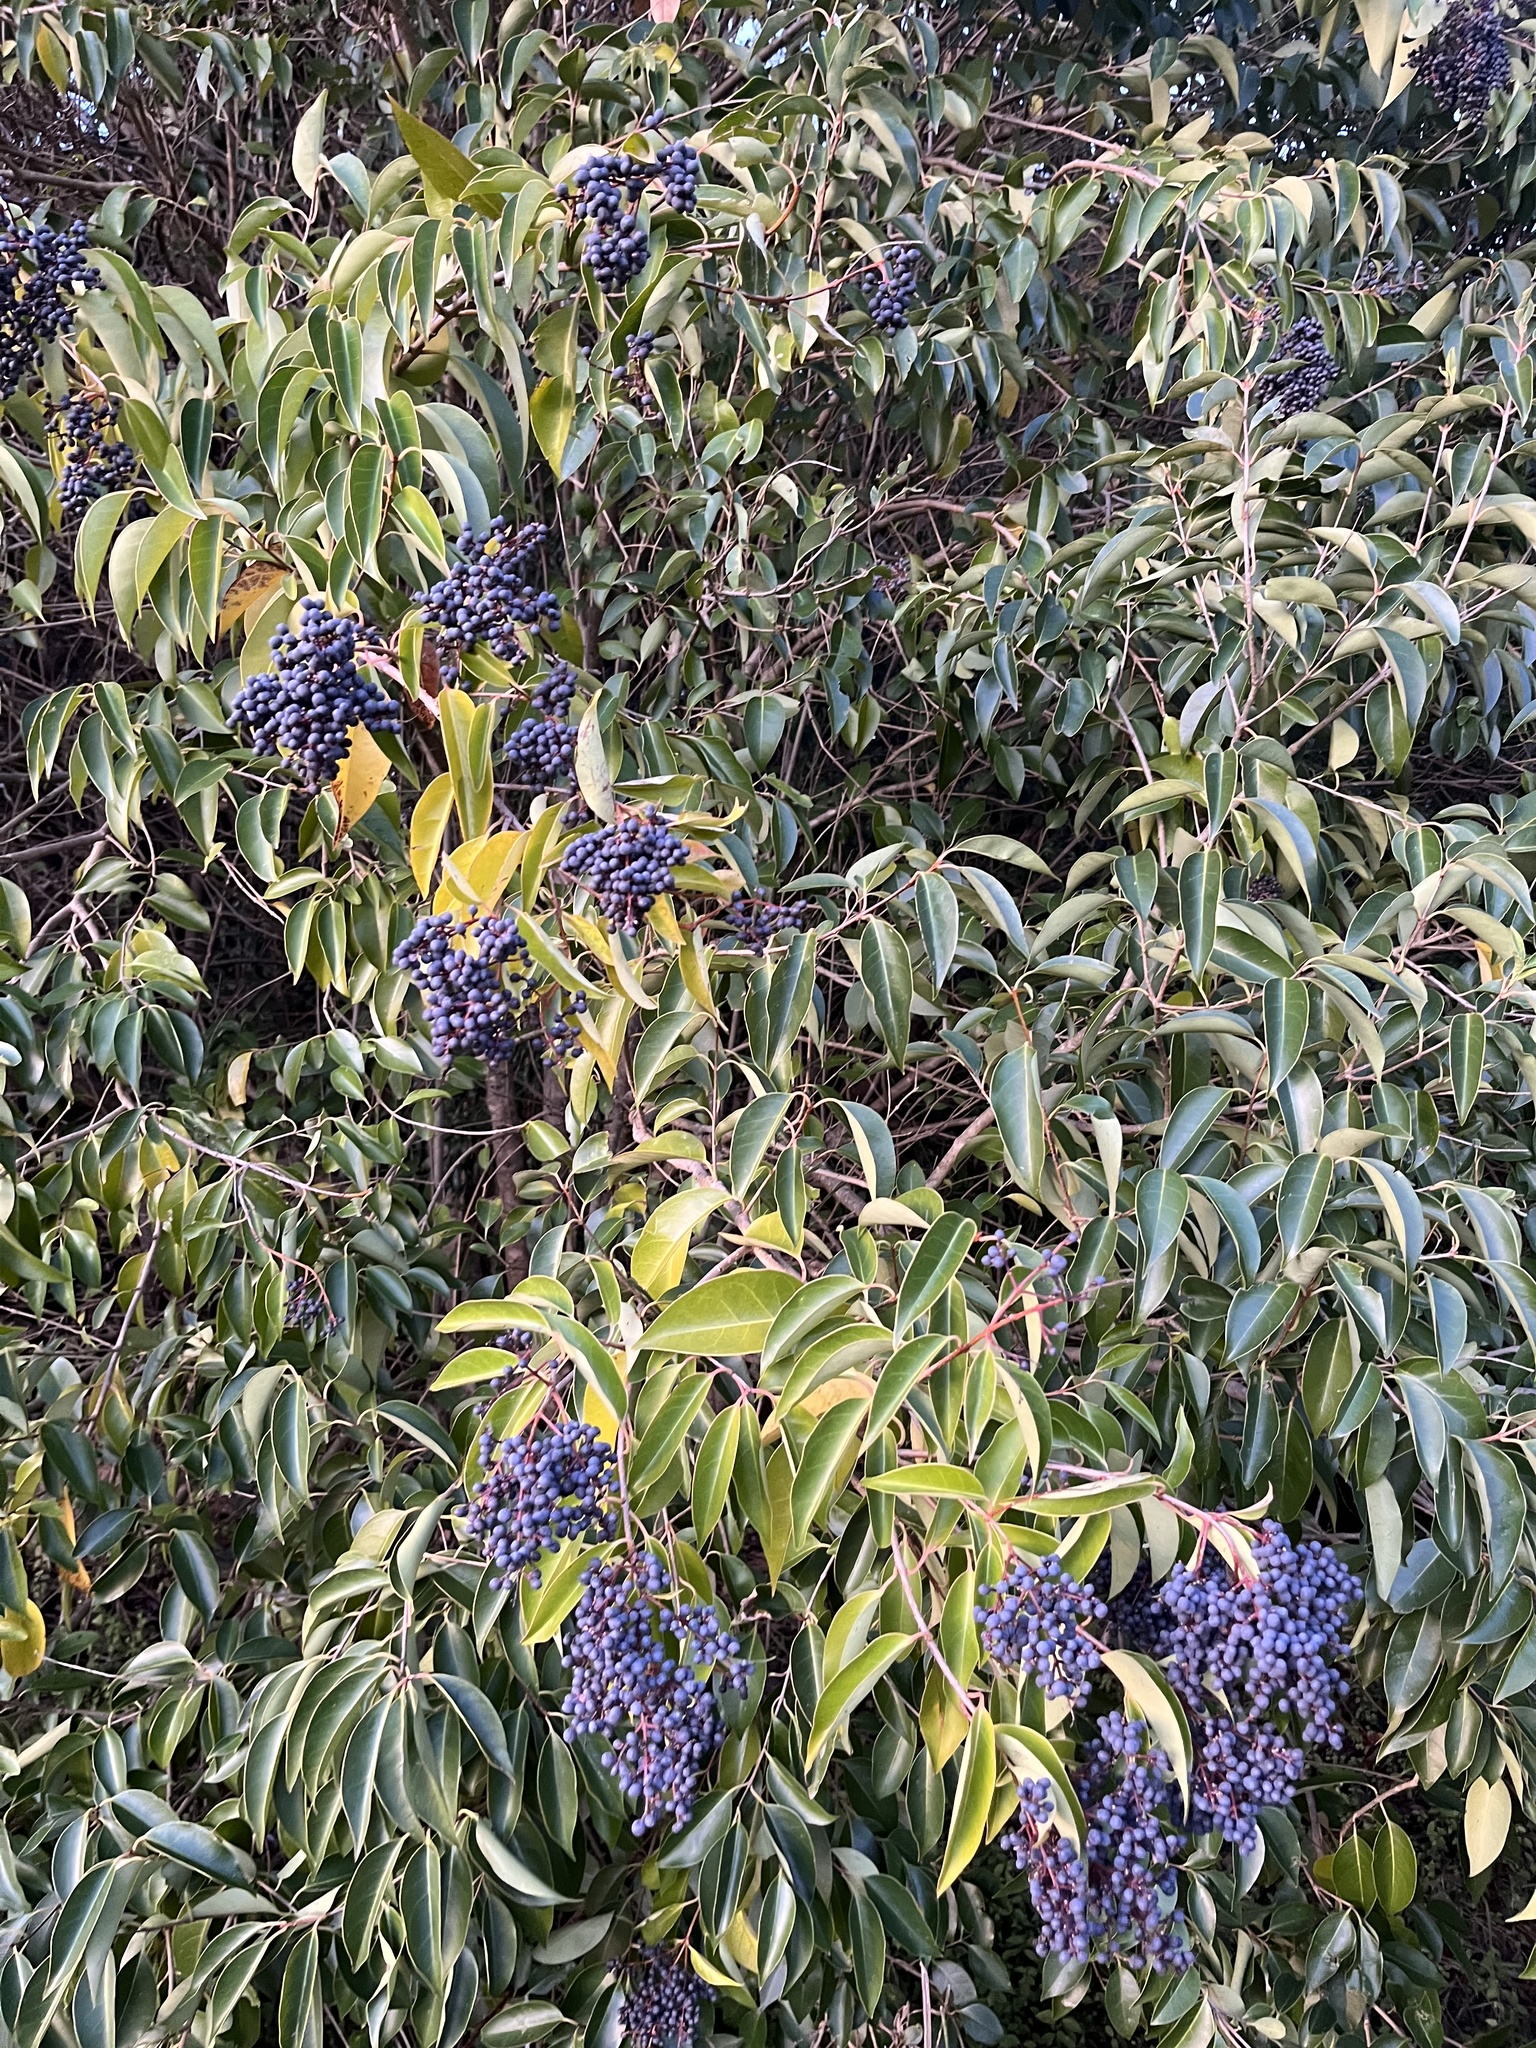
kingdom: Plantae
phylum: Tracheophyta
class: Magnoliopsida
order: Lamiales
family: Oleaceae
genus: Ligustrum
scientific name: Ligustrum lucidum
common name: Glossy privet
